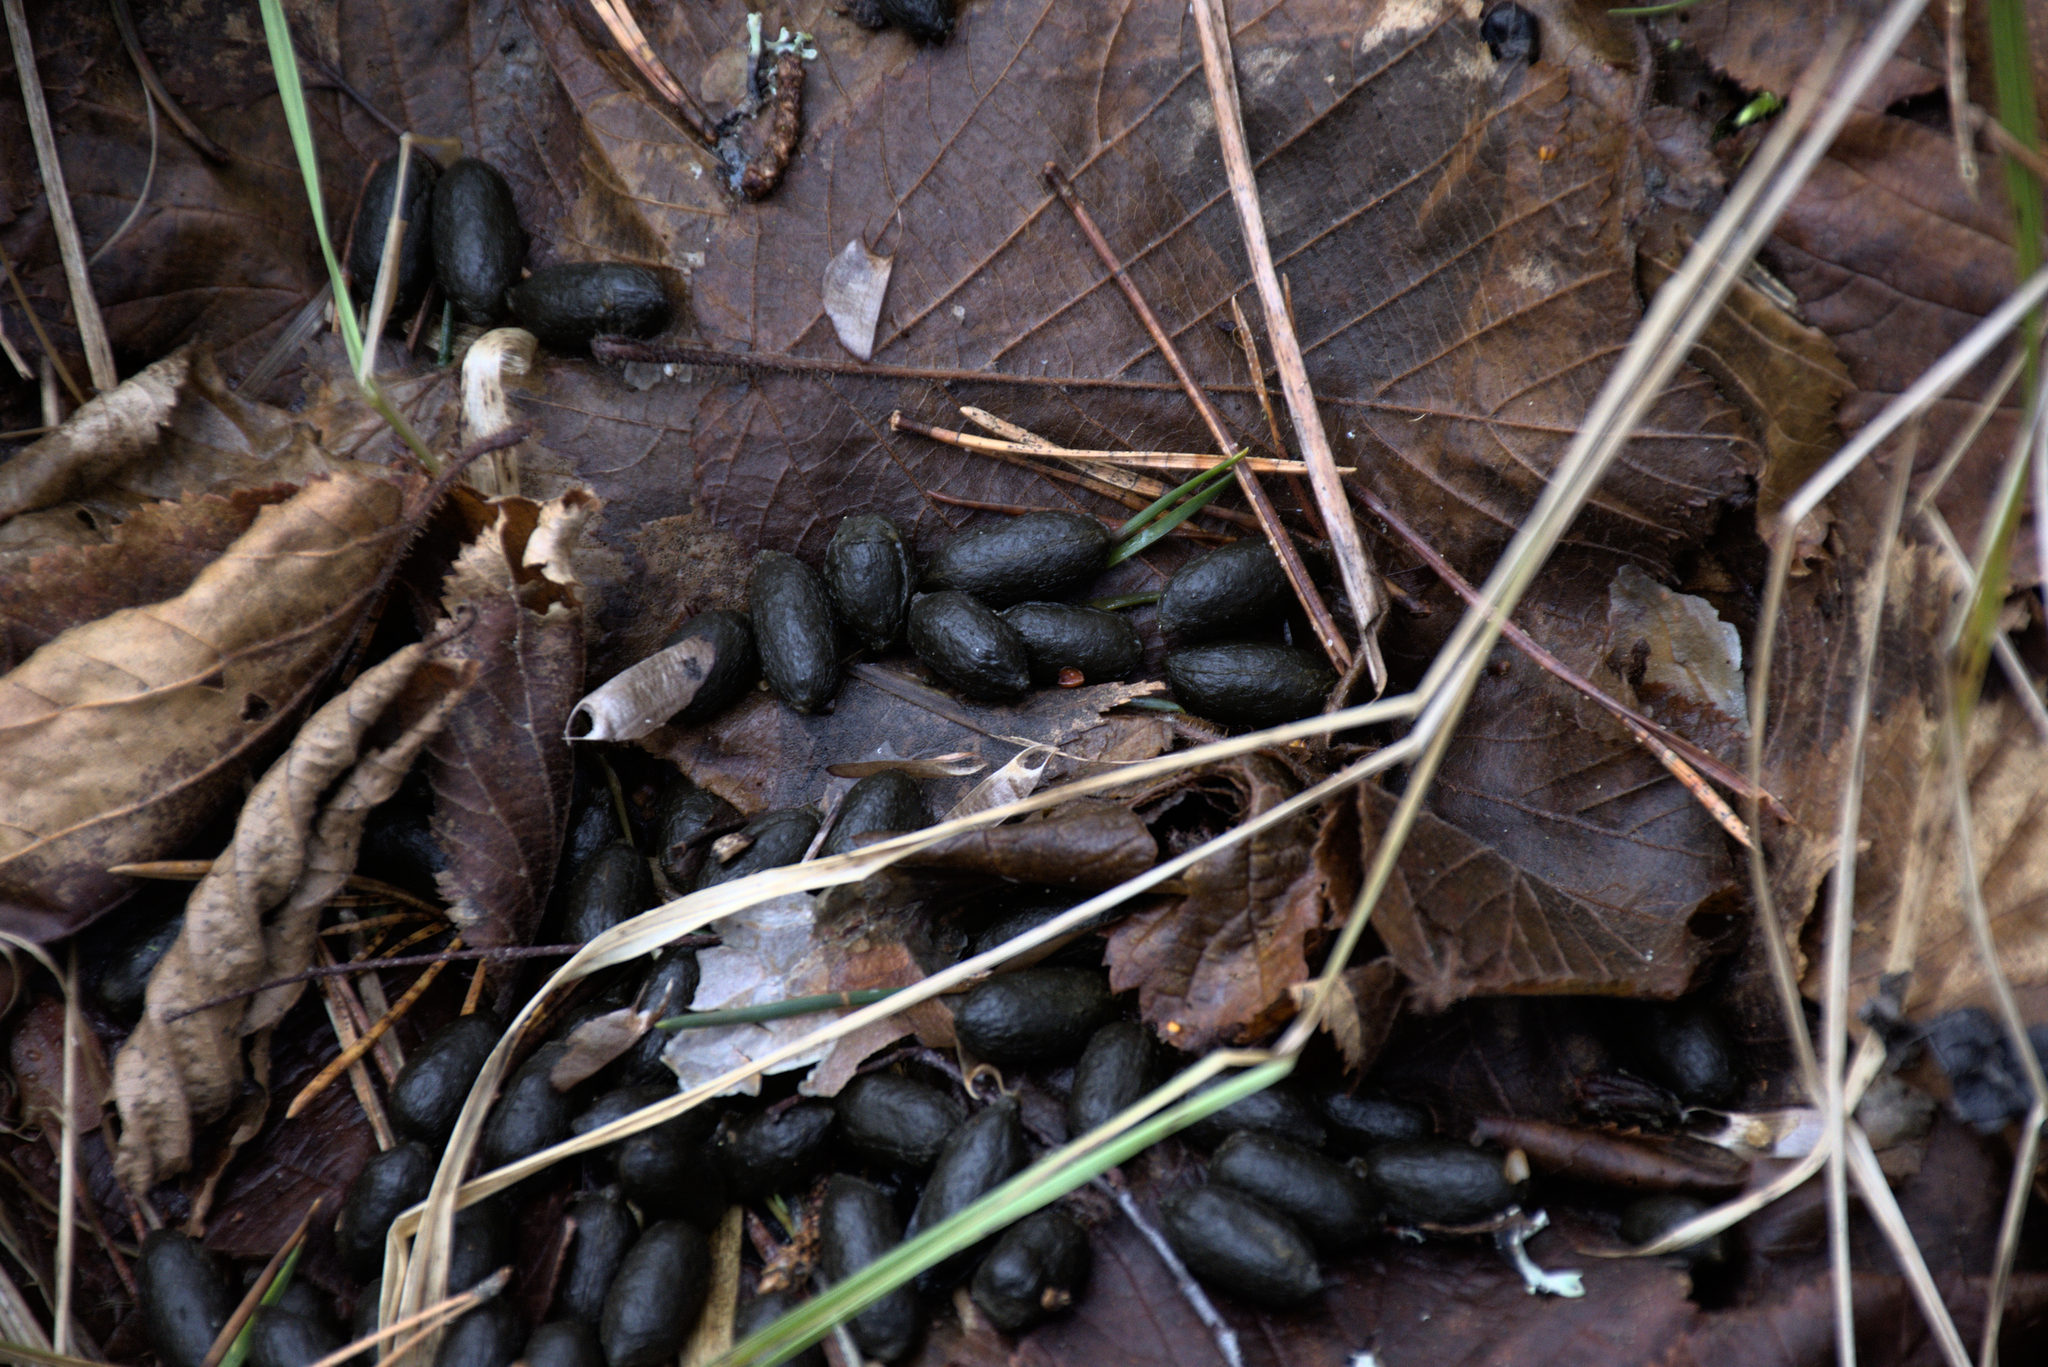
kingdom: Animalia
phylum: Chordata
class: Mammalia
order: Artiodactyla
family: Cervidae
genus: Capreolus
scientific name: Capreolus capreolus
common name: Western roe deer
